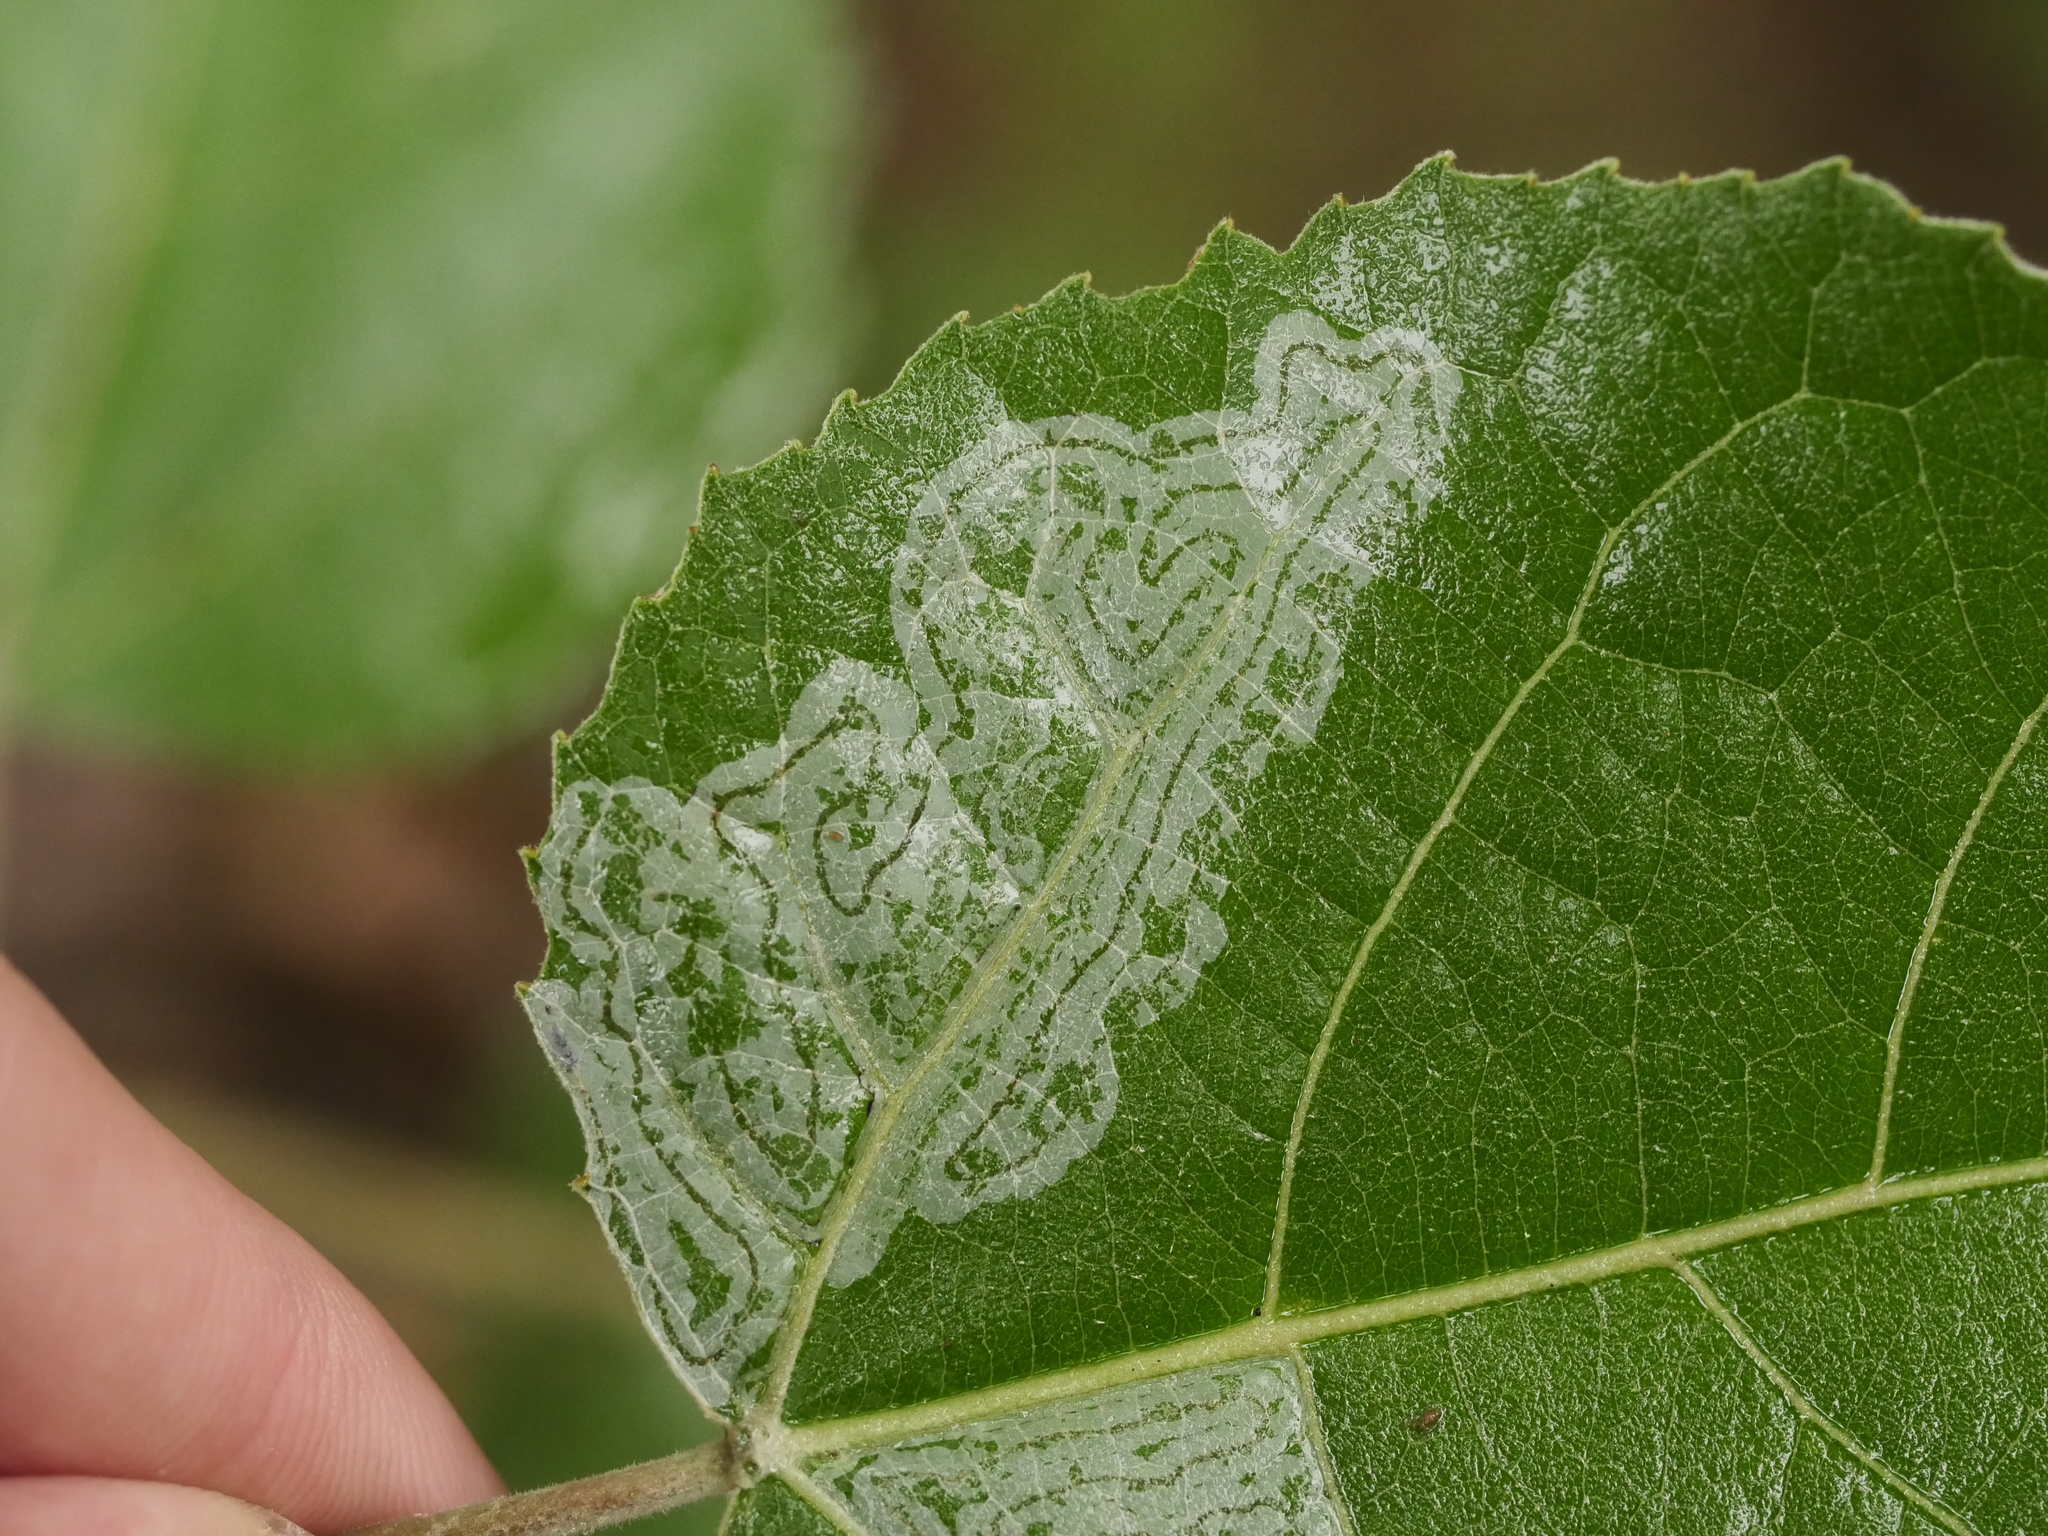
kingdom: Animalia
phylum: Arthropoda
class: Insecta
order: Lepidoptera
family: Gracillariidae
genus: Phyllocnistis
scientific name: Phyllocnistis populiella
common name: Aspen serpentine leafminer moth
